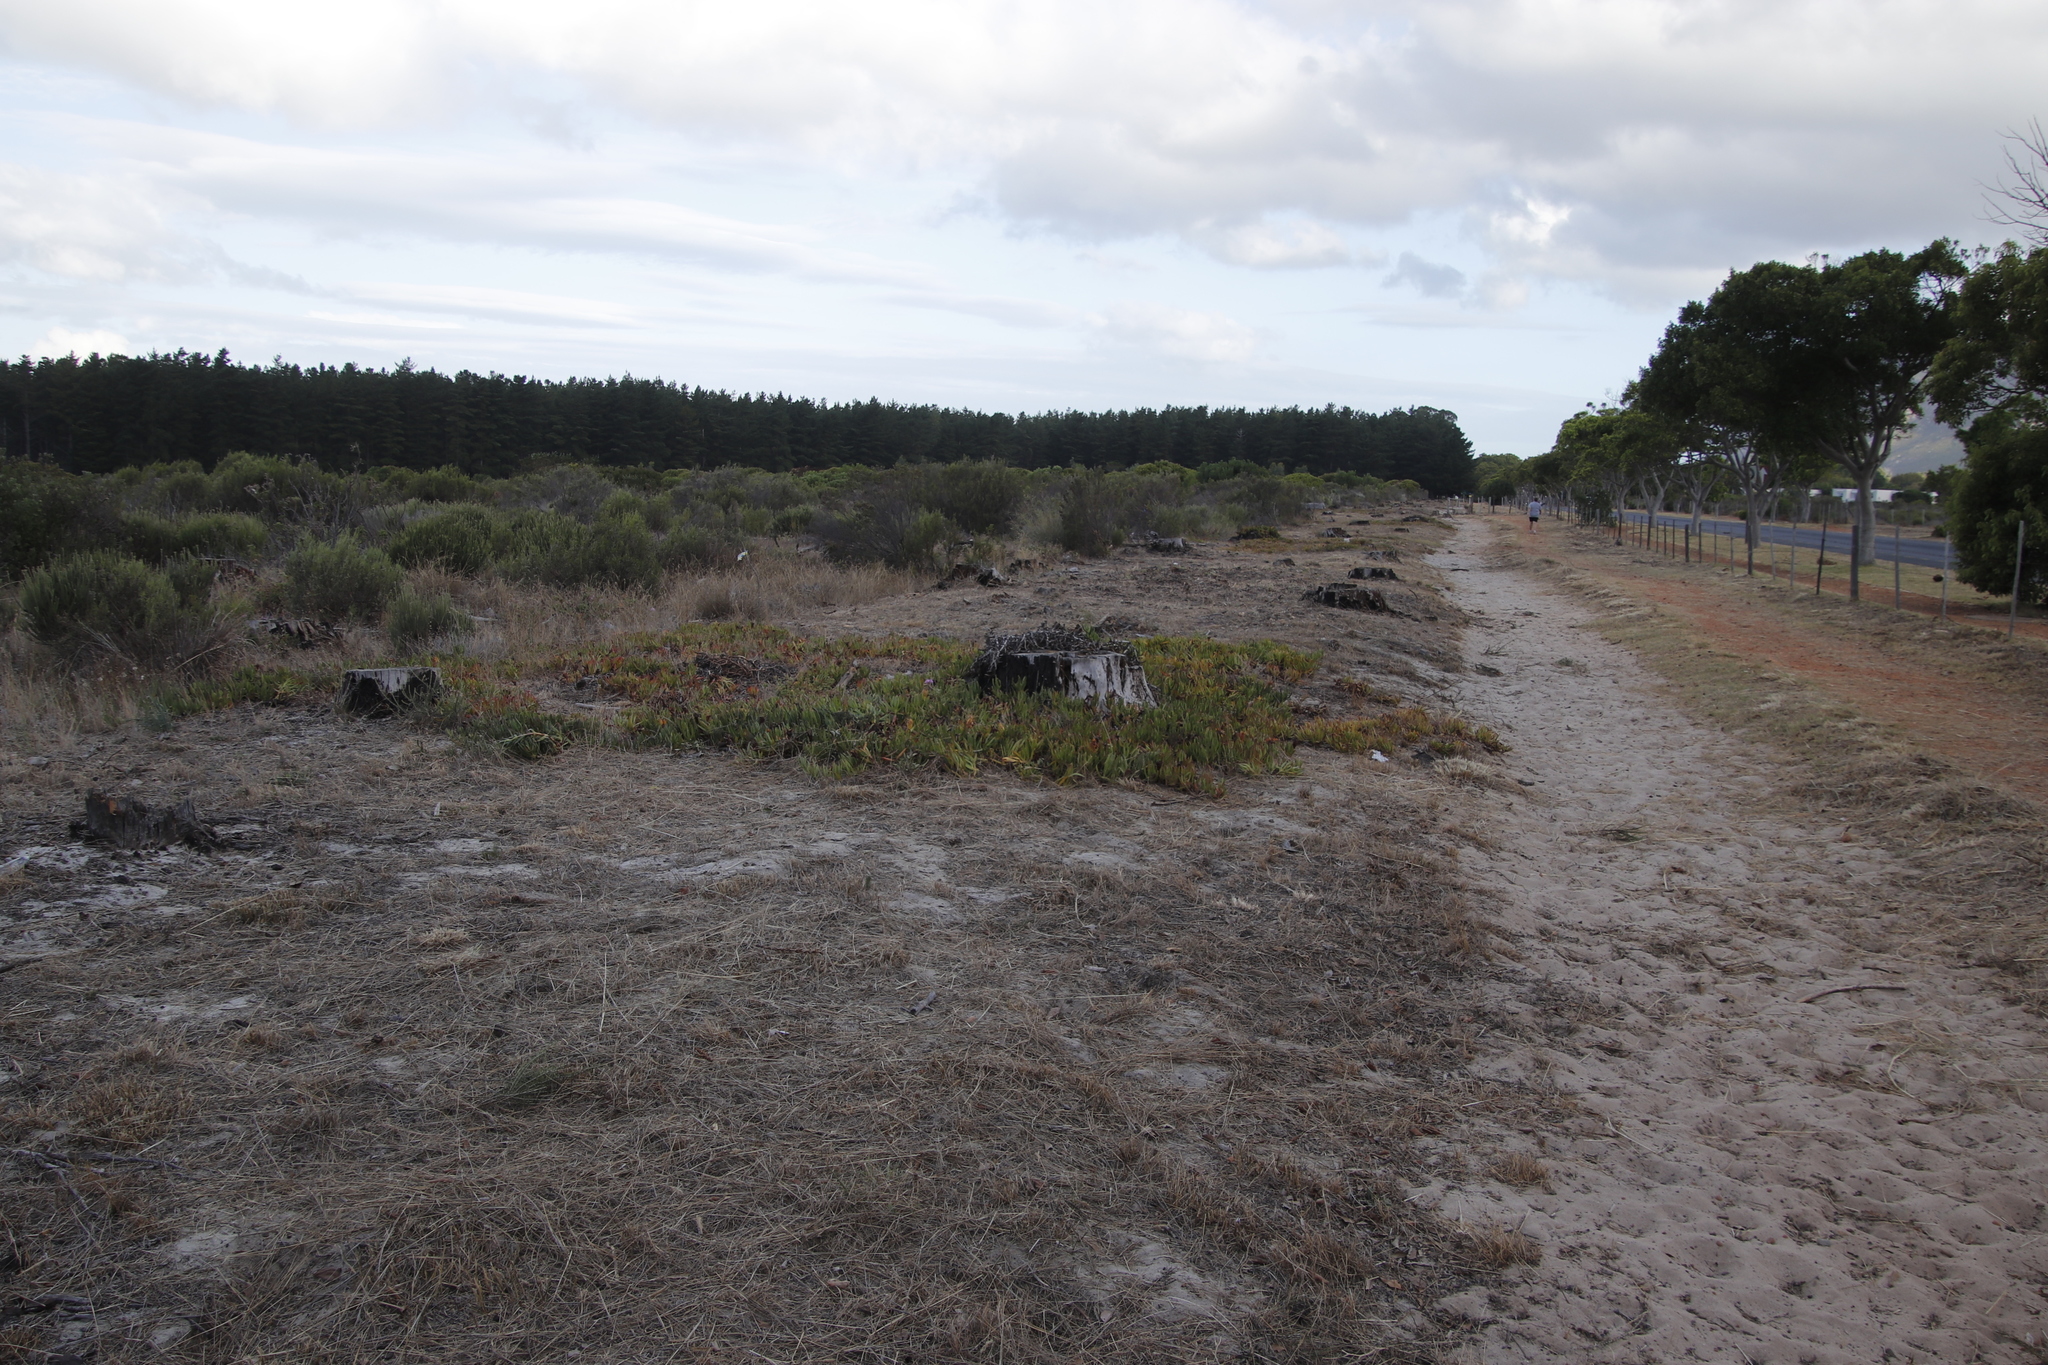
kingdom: Plantae
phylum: Tracheophyta
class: Magnoliopsida
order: Caryophyllales
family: Aizoaceae
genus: Carpobrotus
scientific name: Carpobrotus edulis
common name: Hottentot-fig
